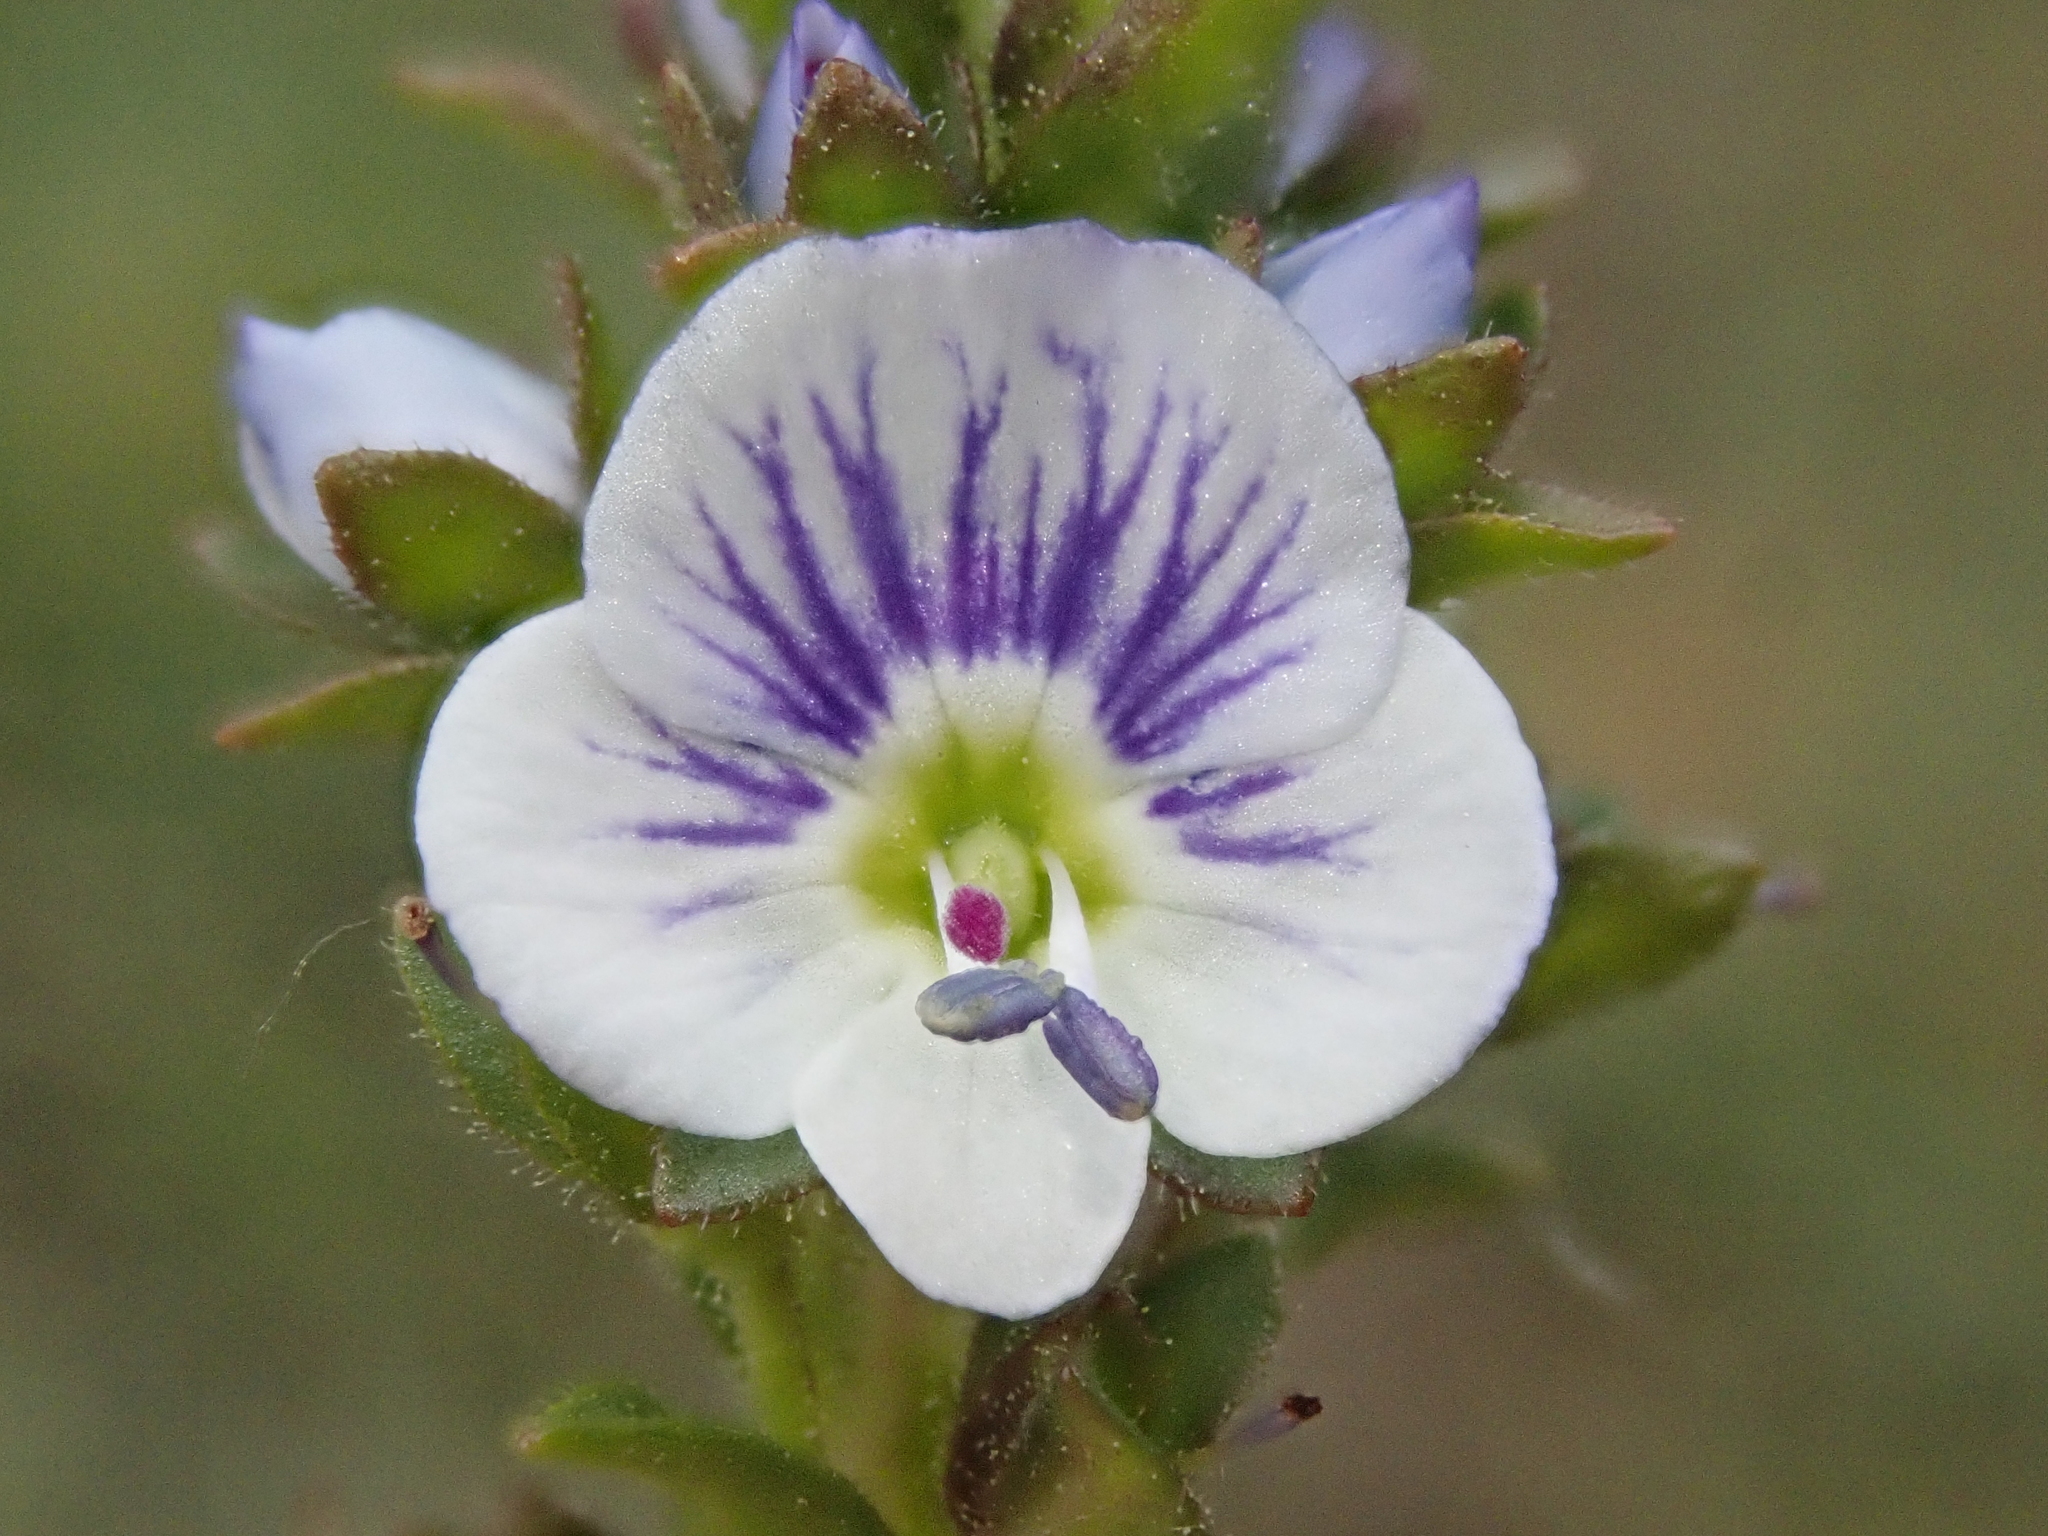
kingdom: Plantae
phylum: Tracheophyta
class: Magnoliopsida
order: Lamiales
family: Plantaginaceae
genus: Veronica
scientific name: Veronica serpyllifolia
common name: Thyme-leaved speedwell
